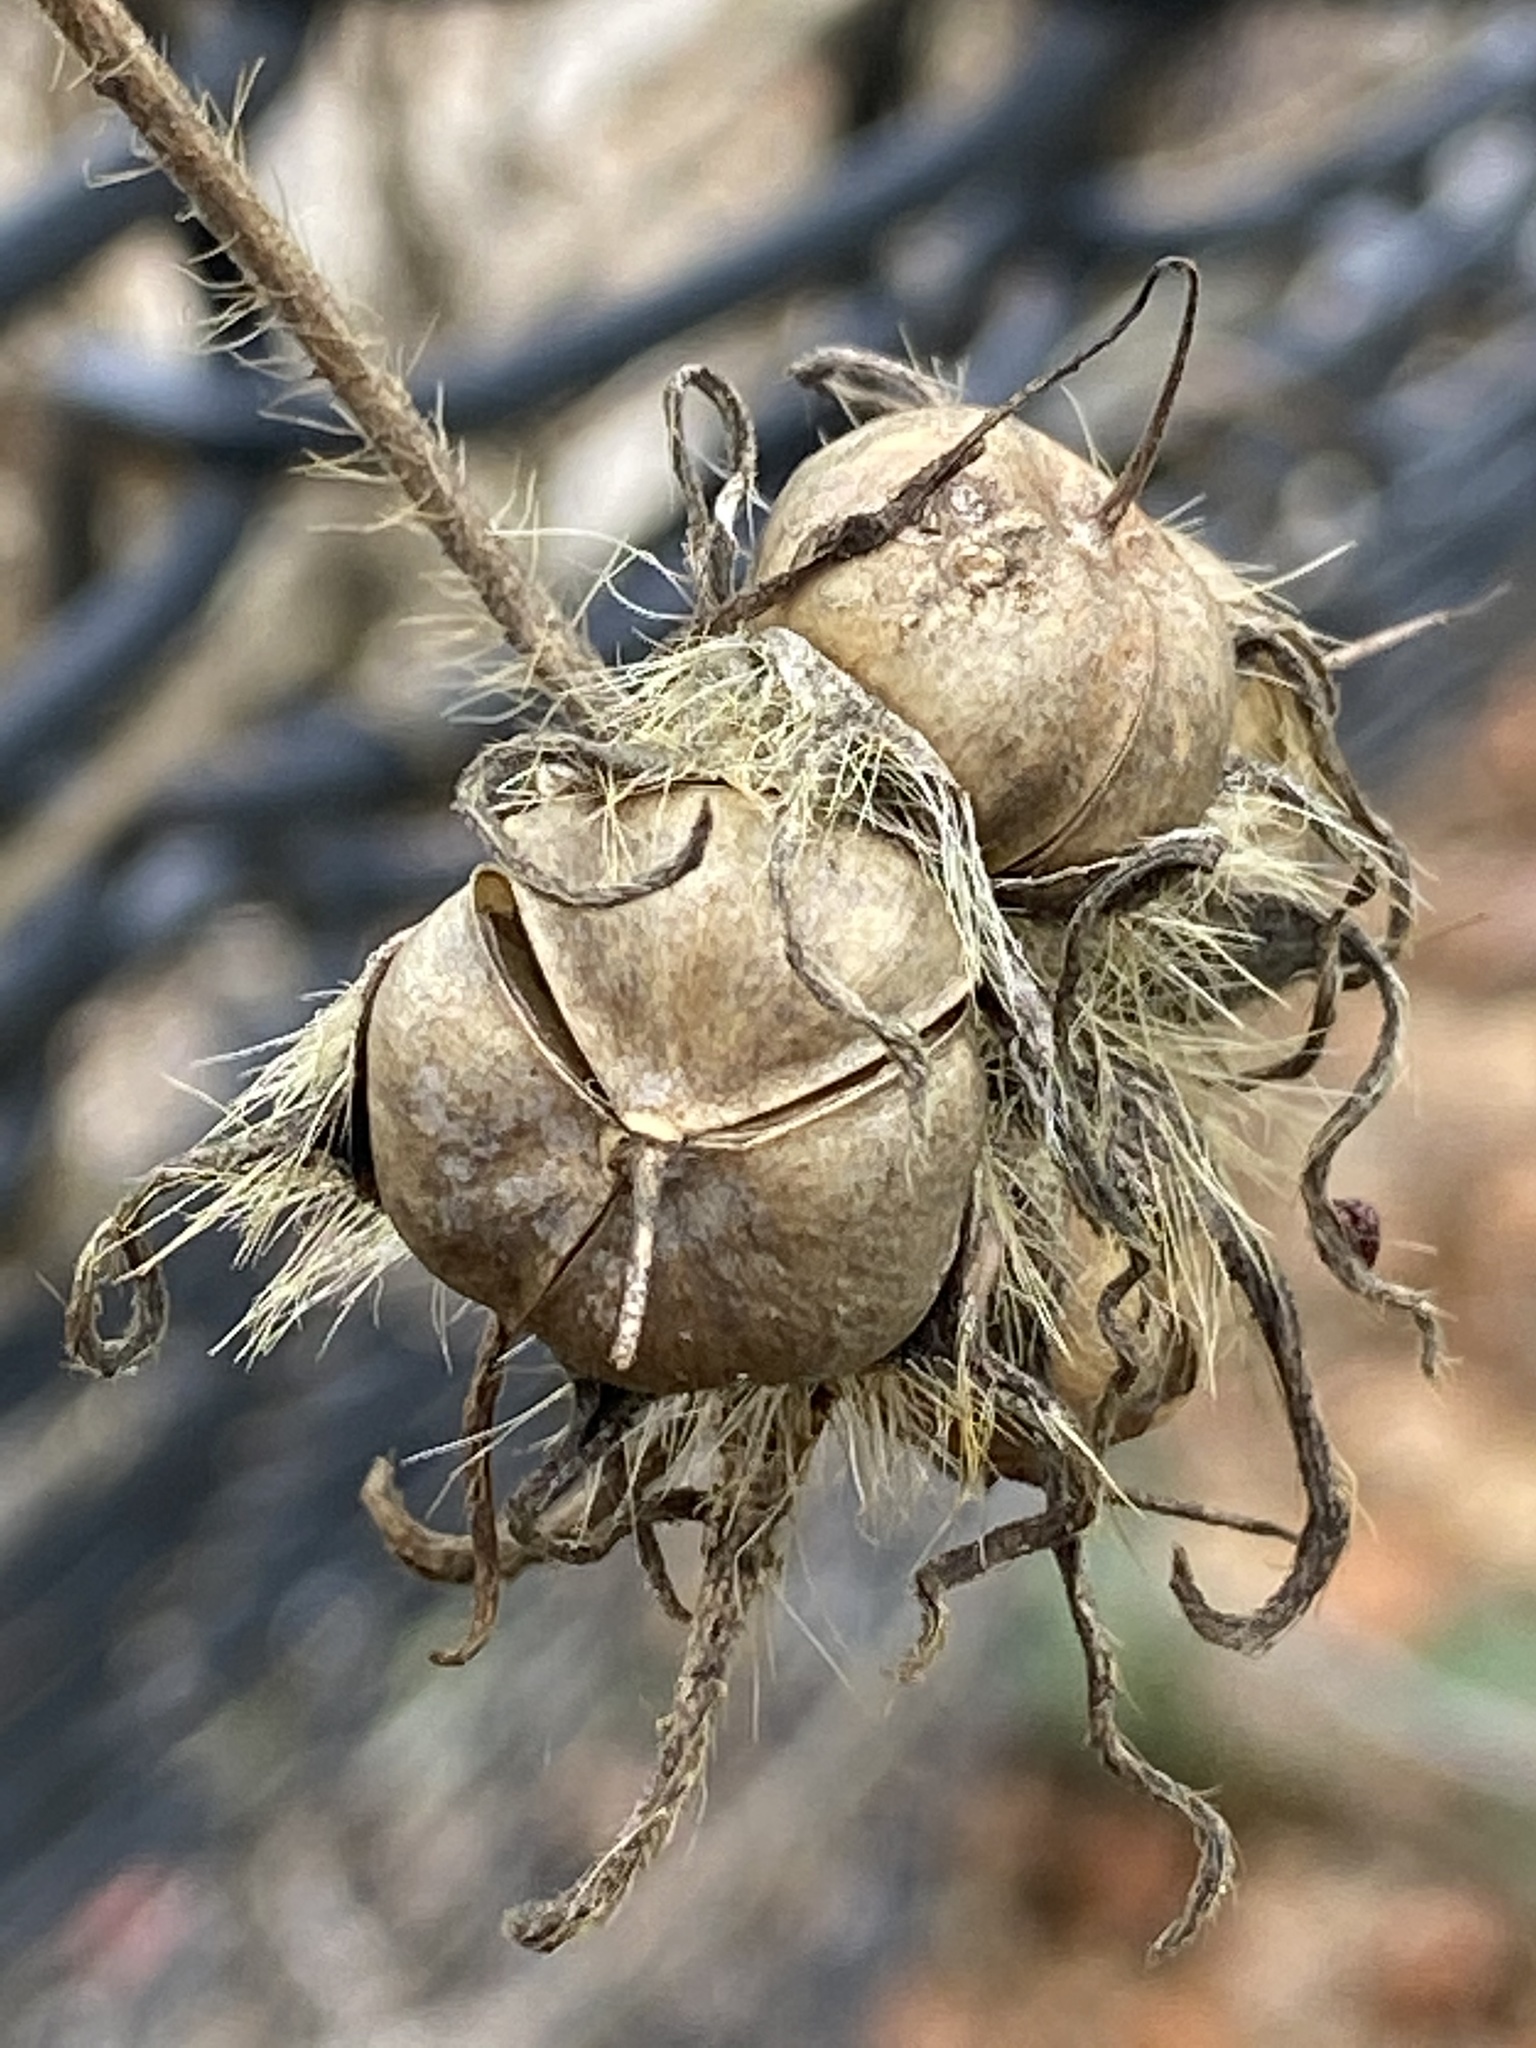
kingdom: Plantae
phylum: Tracheophyta
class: Magnoliopsida
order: Solanales
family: Convolvulaceae
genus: Ipomoea
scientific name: Ipomoea hederacea
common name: Ivy-leaved morning-glory
